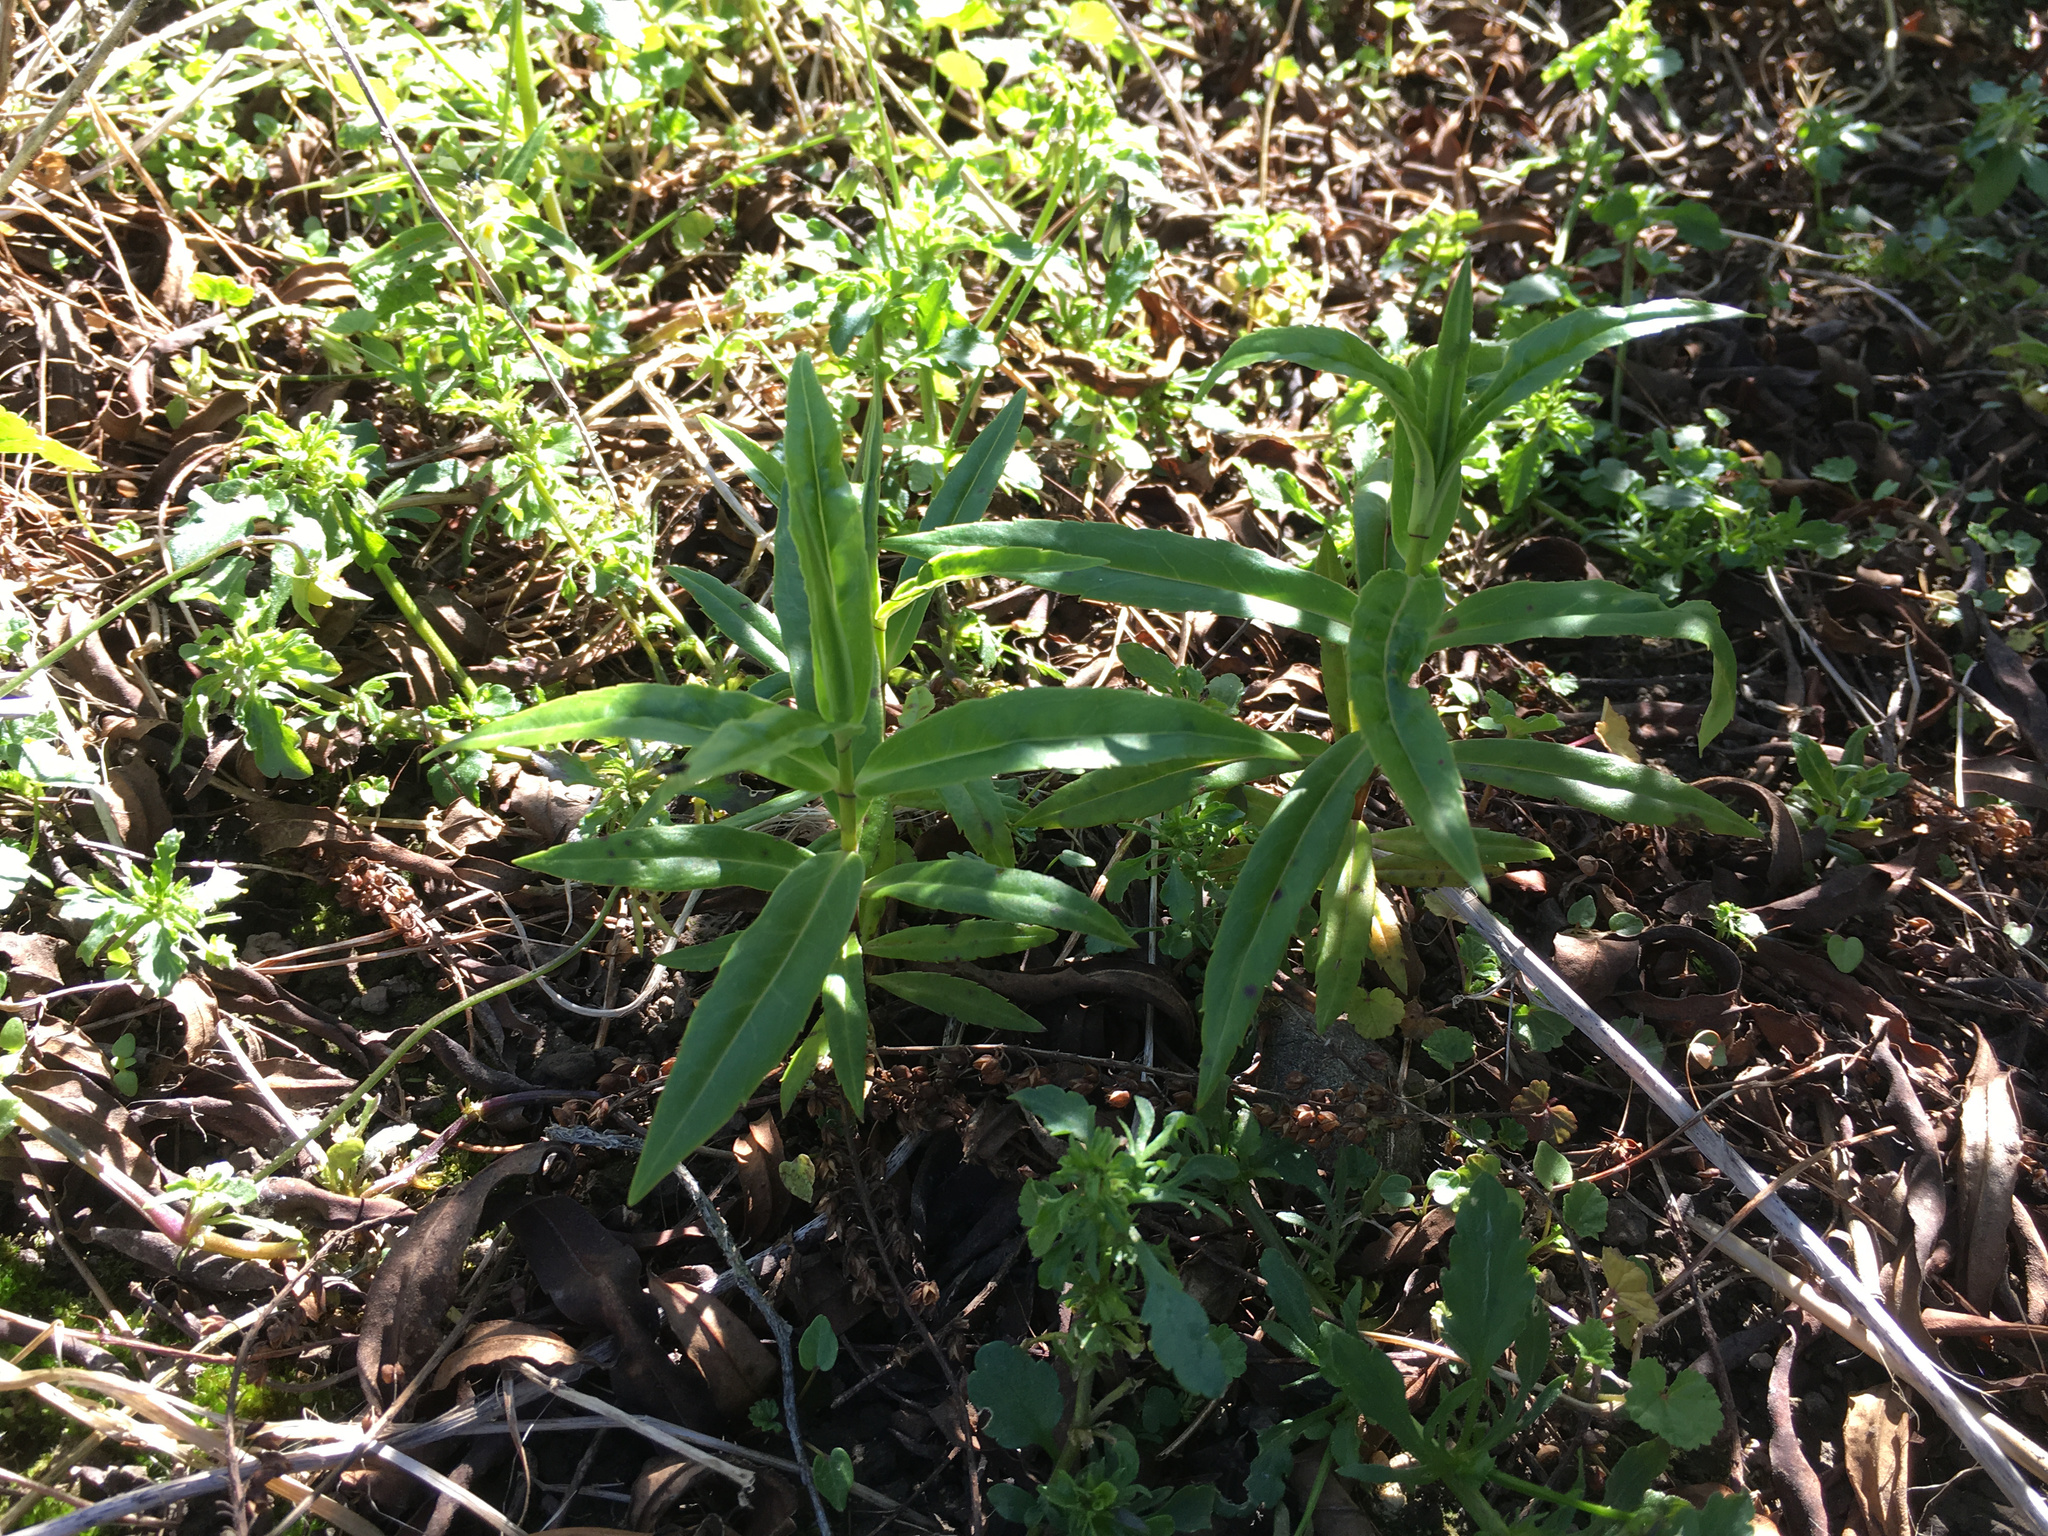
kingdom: Plantae
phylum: Tracheophyta
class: Magnoliopsida
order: Lamiales
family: Plantaginaceae
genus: Veronica
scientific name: Veronica salicifolia
